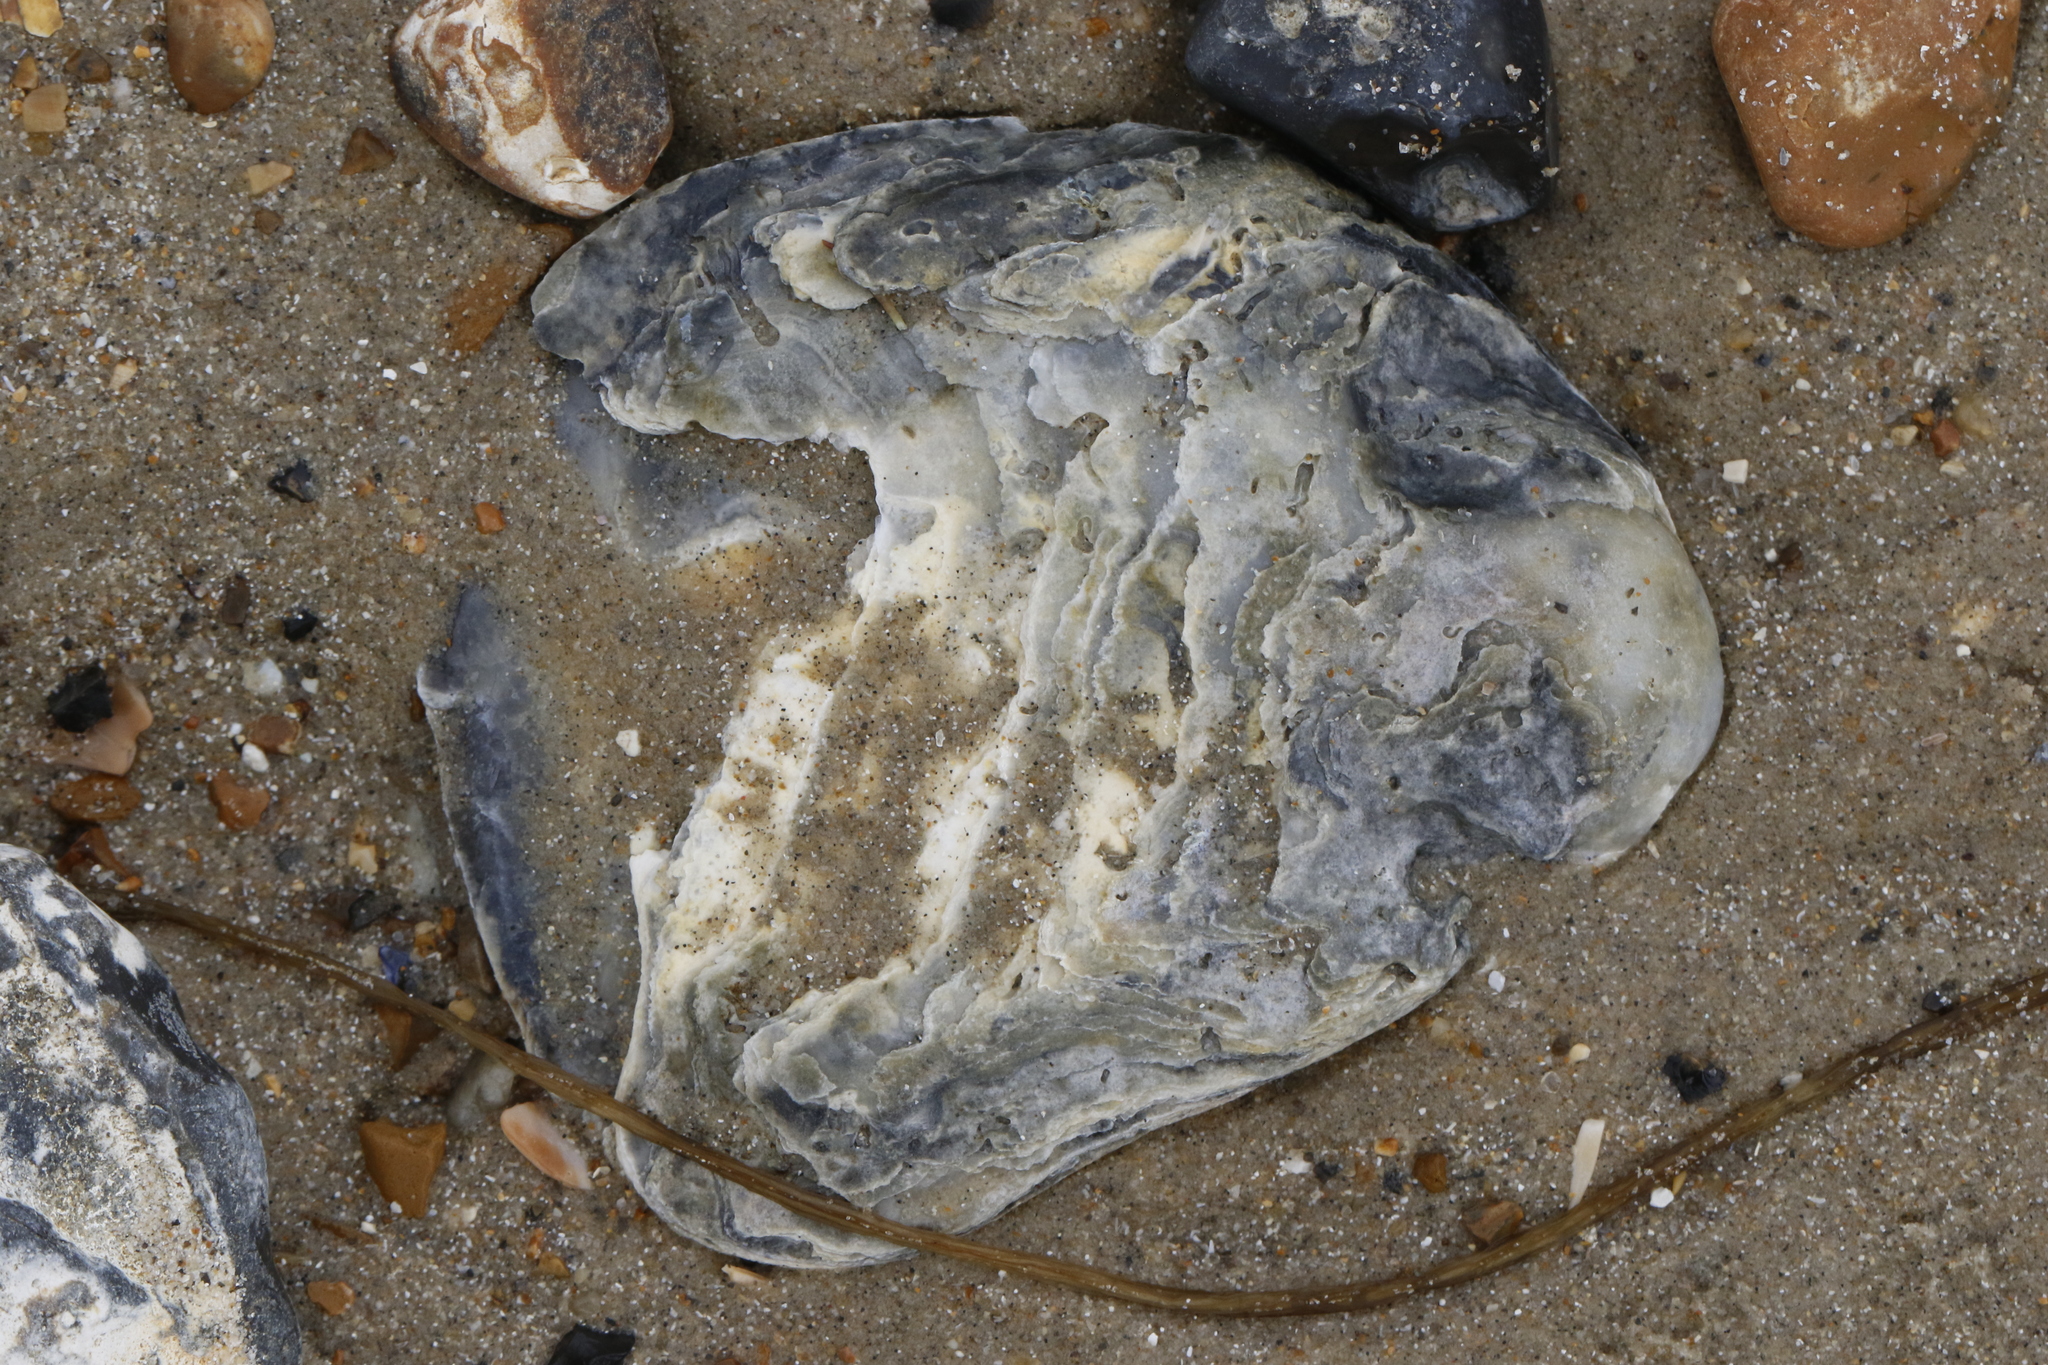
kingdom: Animalia
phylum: Mollusca
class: Bivalvia
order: Ostreida
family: Ostreidae
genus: Ostrea
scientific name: Ostrea edulis
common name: Flat oyster
